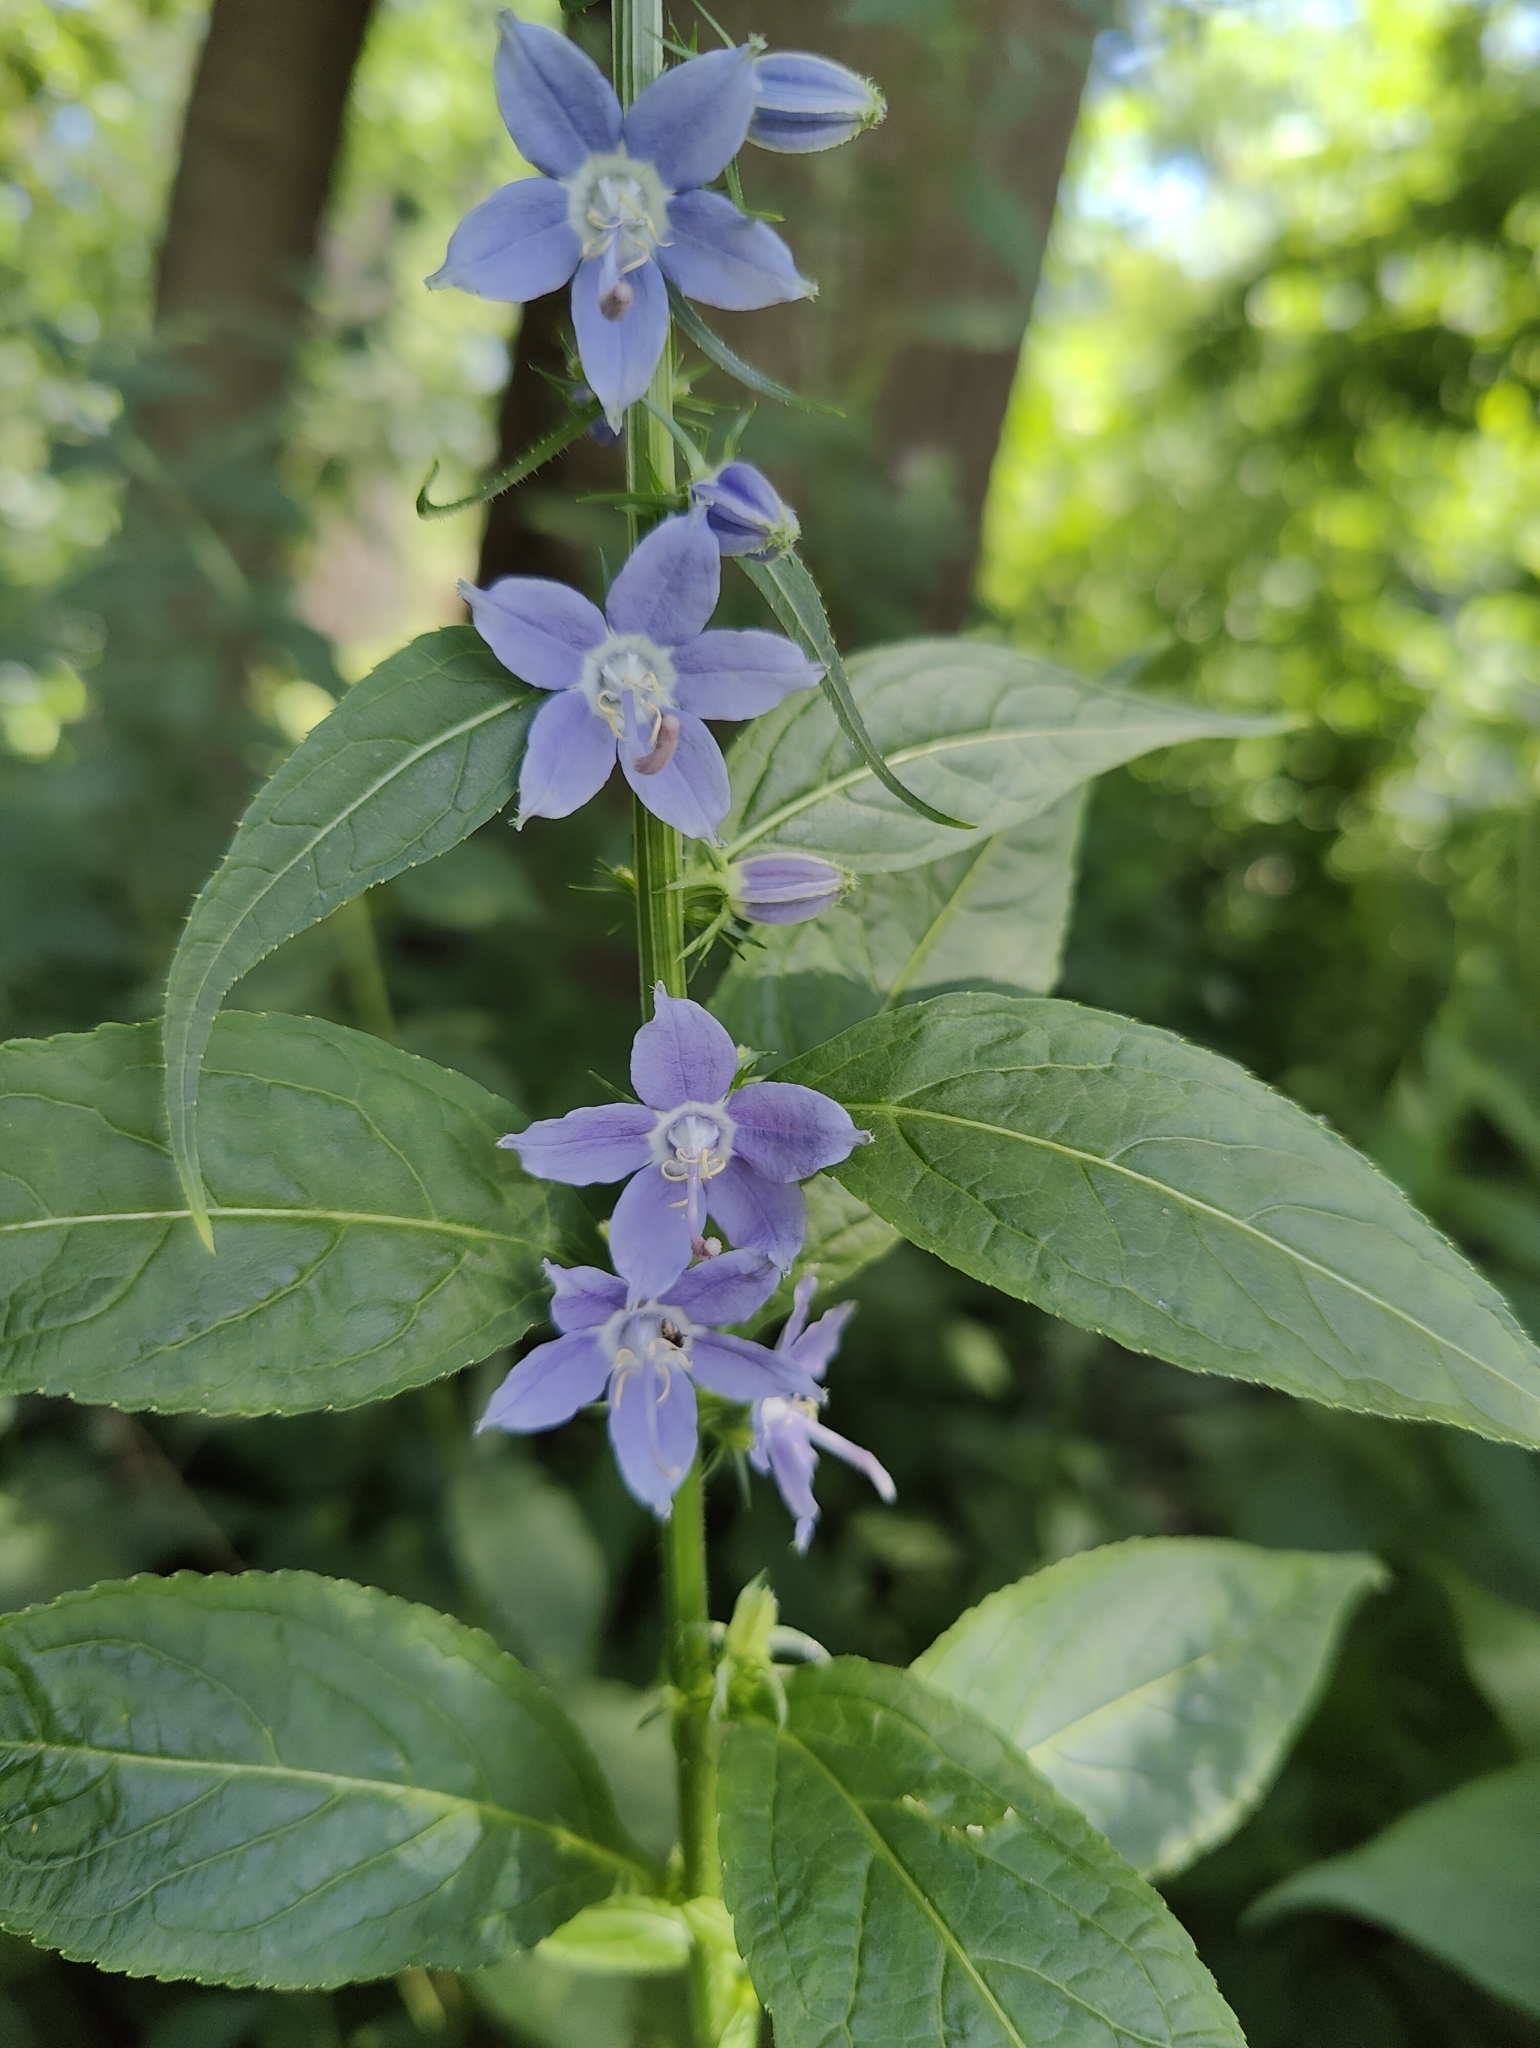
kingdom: Plantae
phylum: Tracheophyta
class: Magnoliopsida
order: Asterales
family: Campanulaceae
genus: Campanulastrum
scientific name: Campanulastrum americanum
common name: American bellflower
